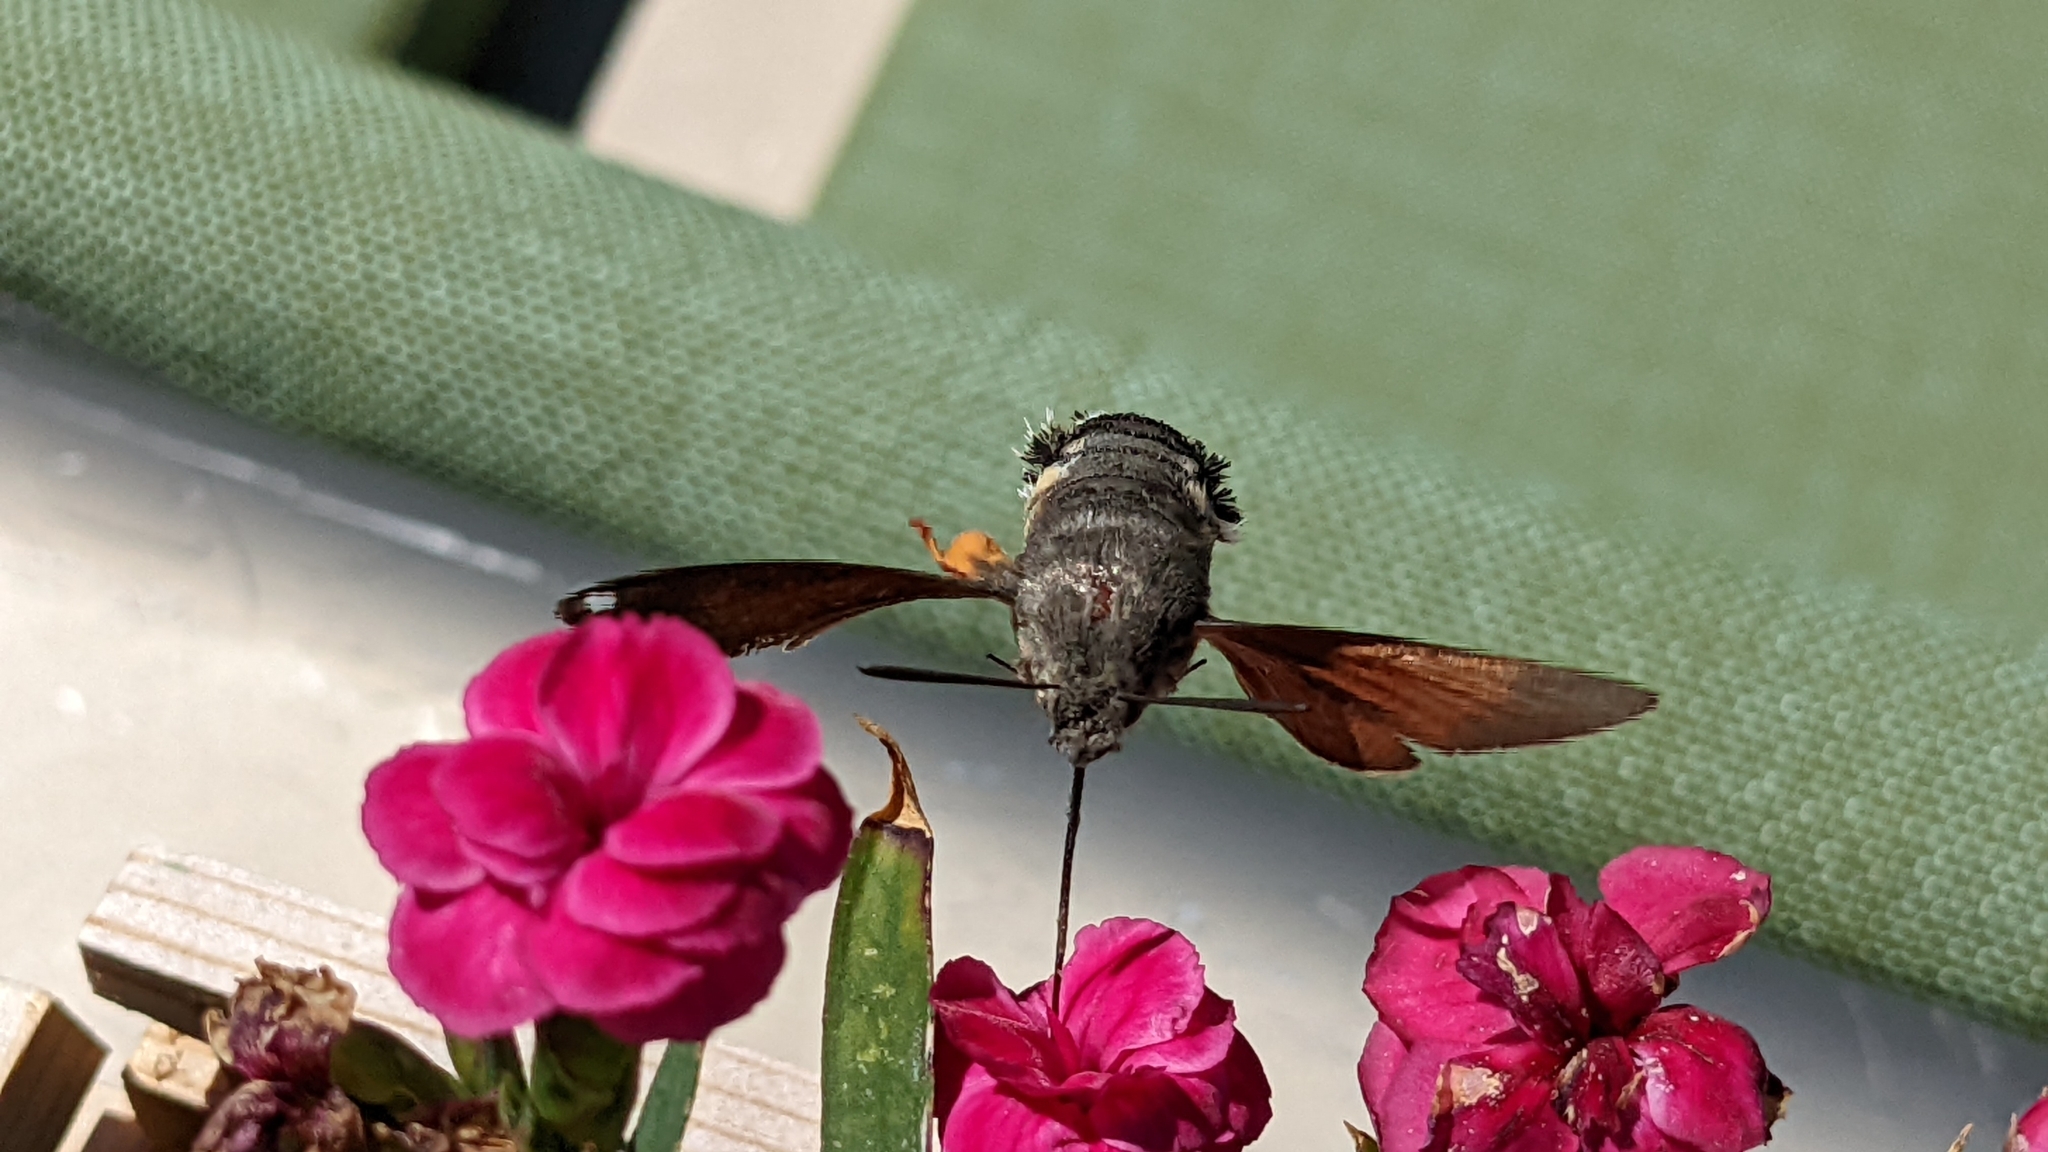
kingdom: Animalia
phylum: Arthropoda
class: Insecta
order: Lepidoptera
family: Sphingidae
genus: Macroglossum
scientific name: Macroglossum stellatarum
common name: Humming-bird hawk-moth
